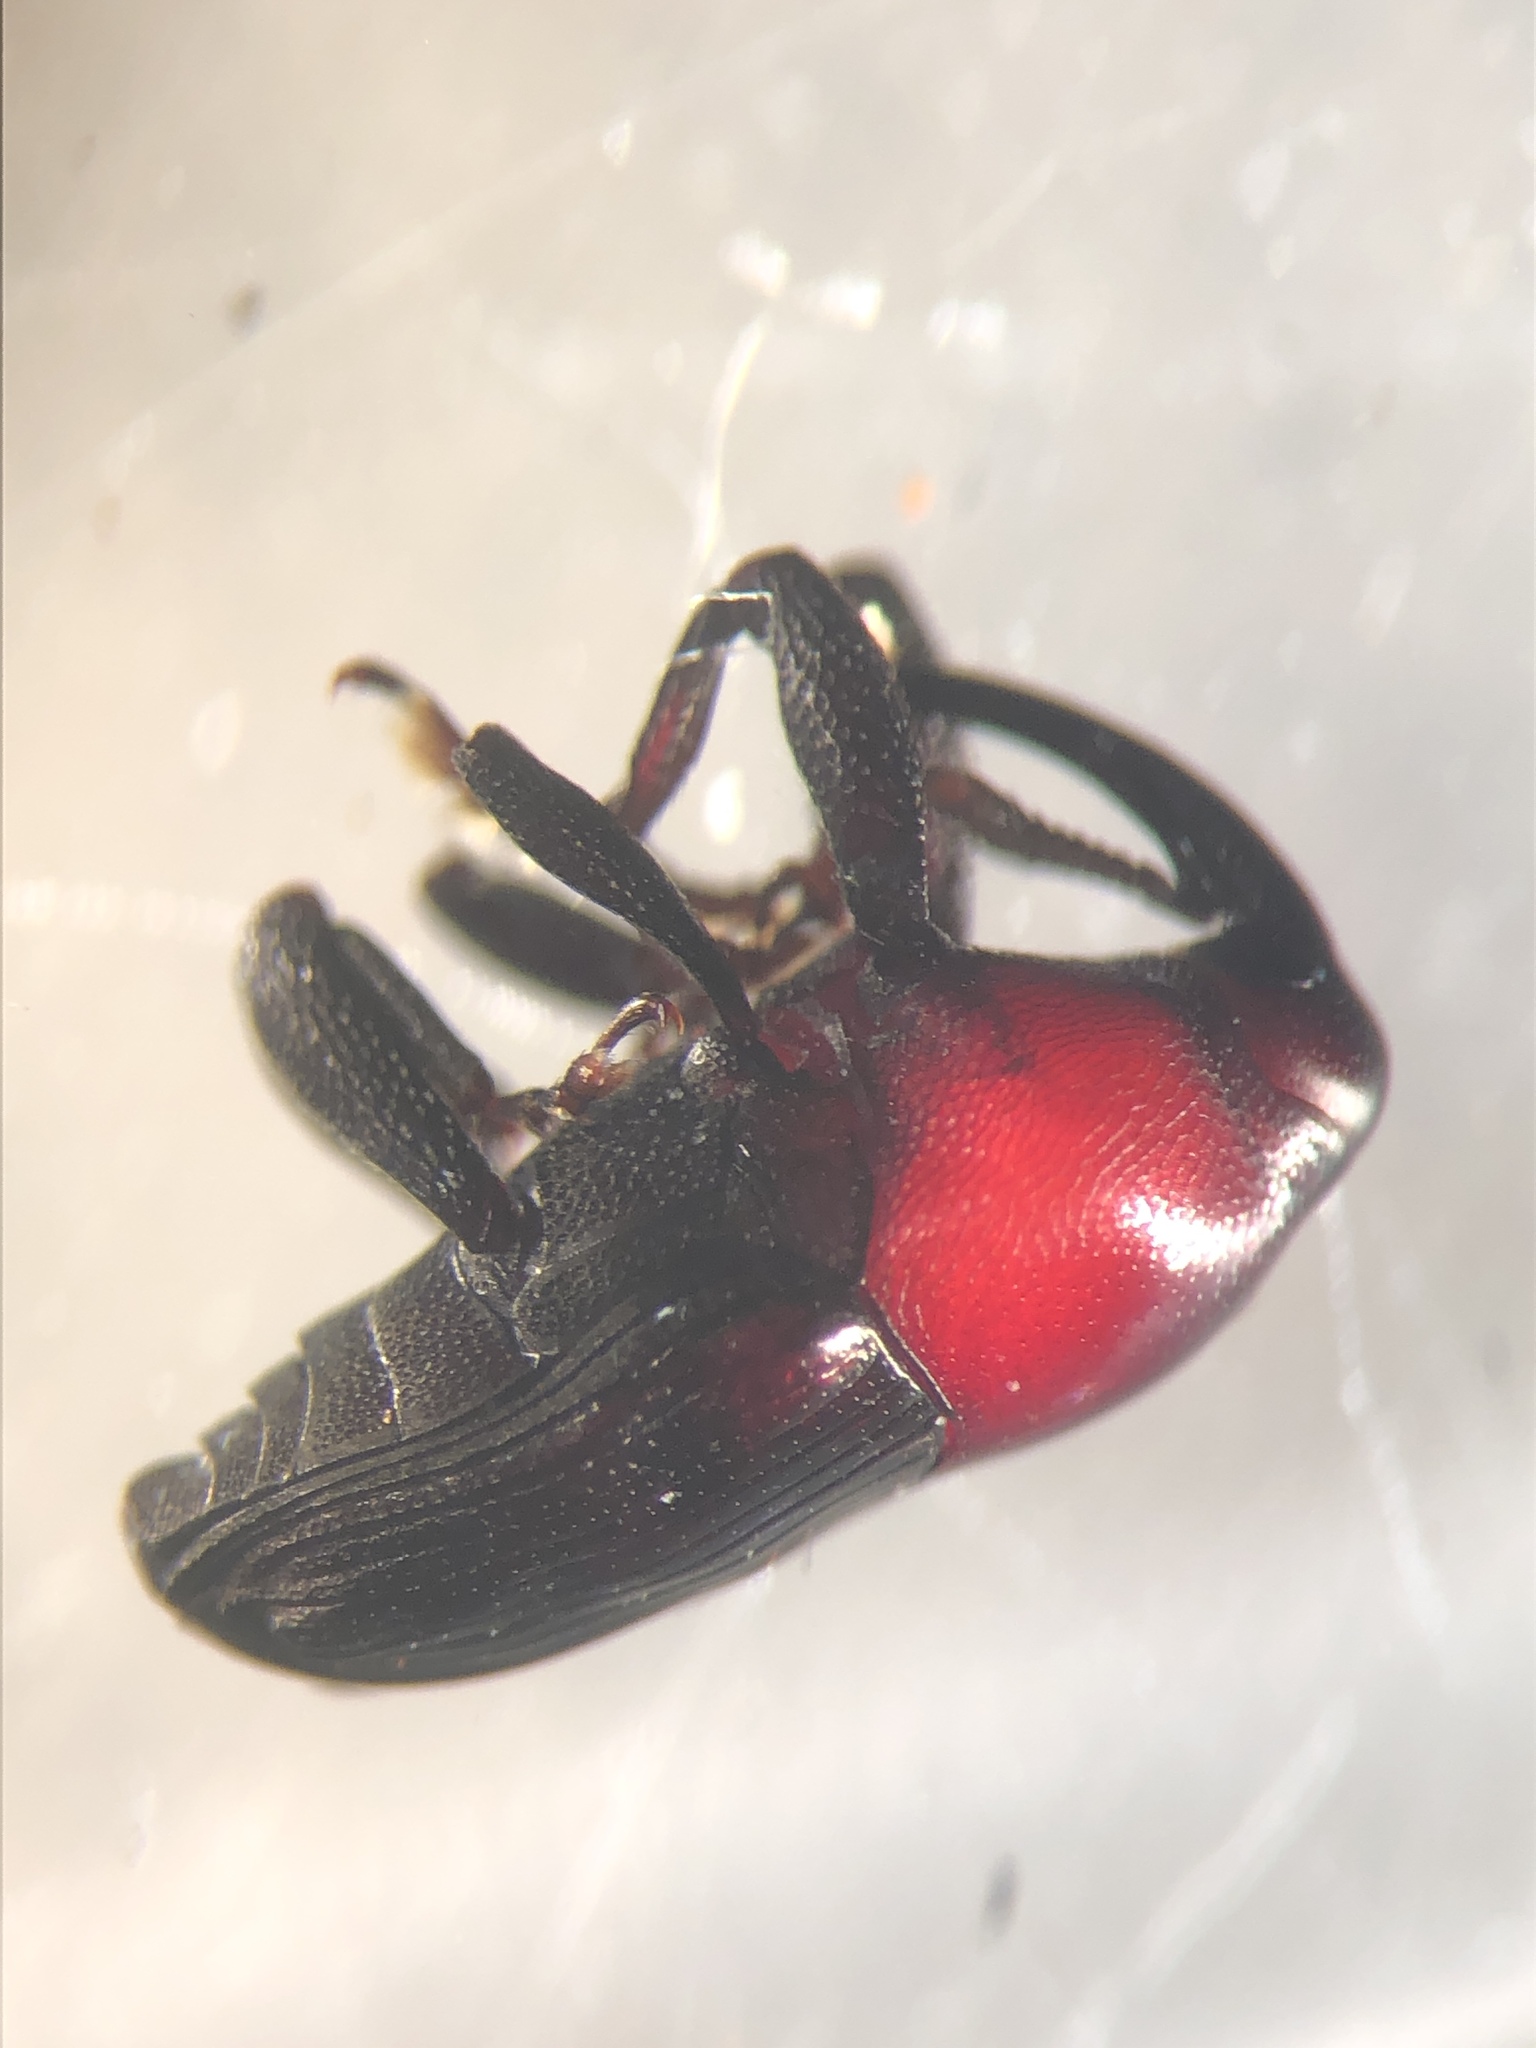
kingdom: Animalia
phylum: Arthropoda
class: Insecta
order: Coleoptera
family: Curculionidae
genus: Madarellus
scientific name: Madarellus undulatus
